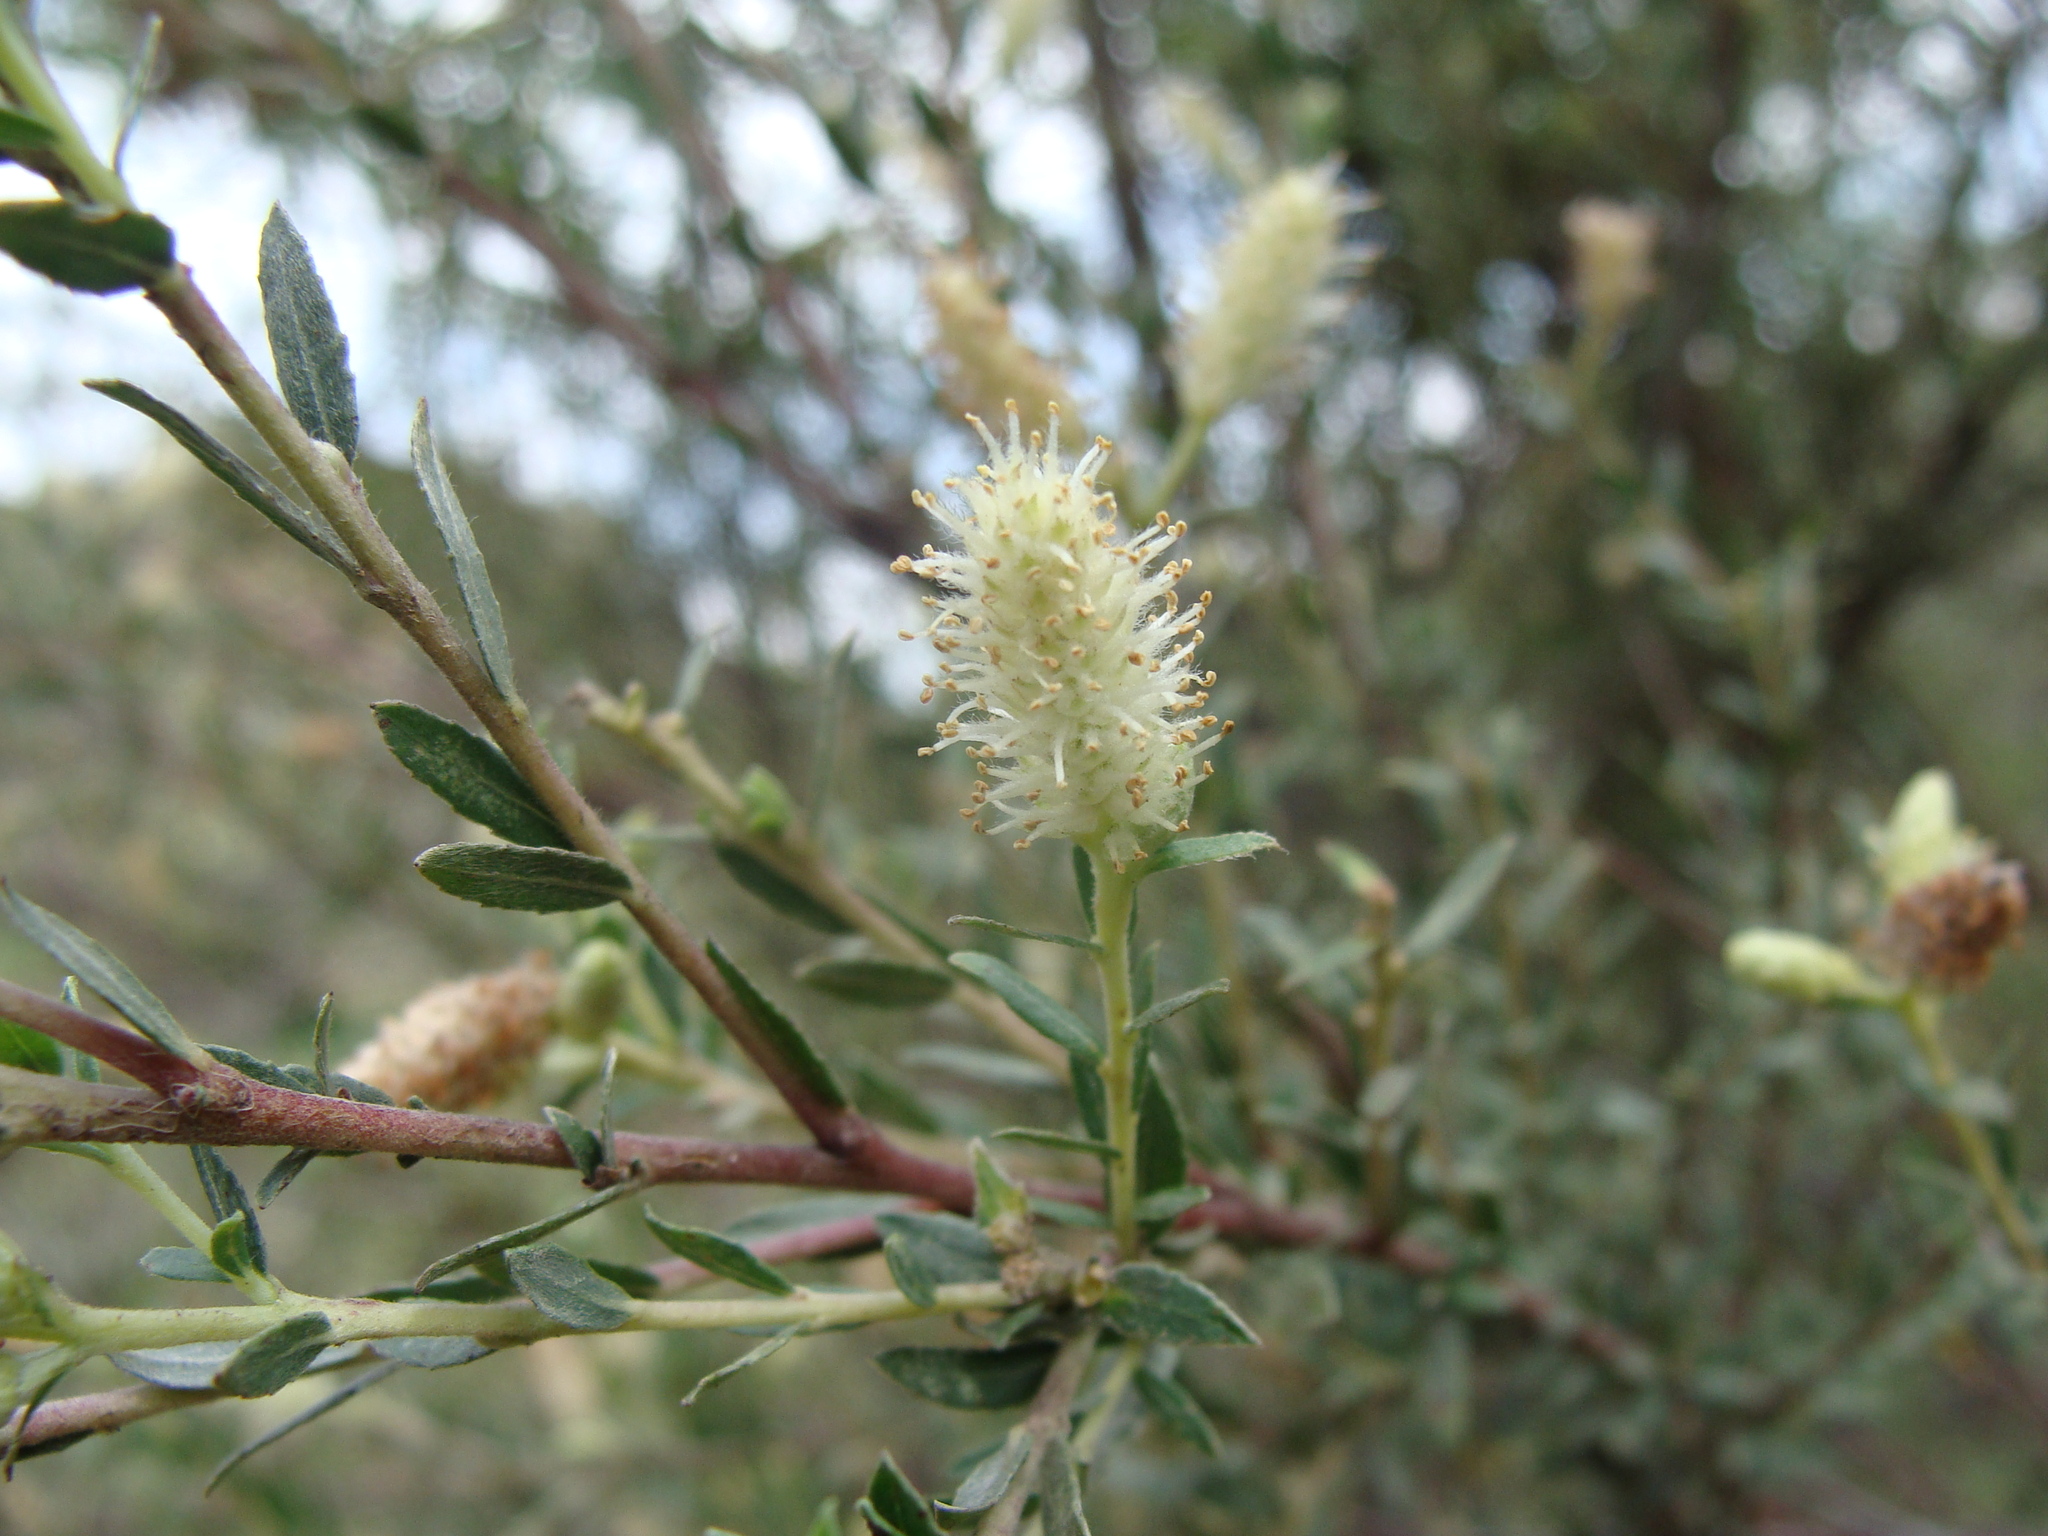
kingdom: Plantae
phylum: Tracheophyta
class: Magnoliopsida
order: Malpighiales
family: Salicaceae
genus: Salix
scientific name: Salix taxifolia
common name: Yew-leaf willow
